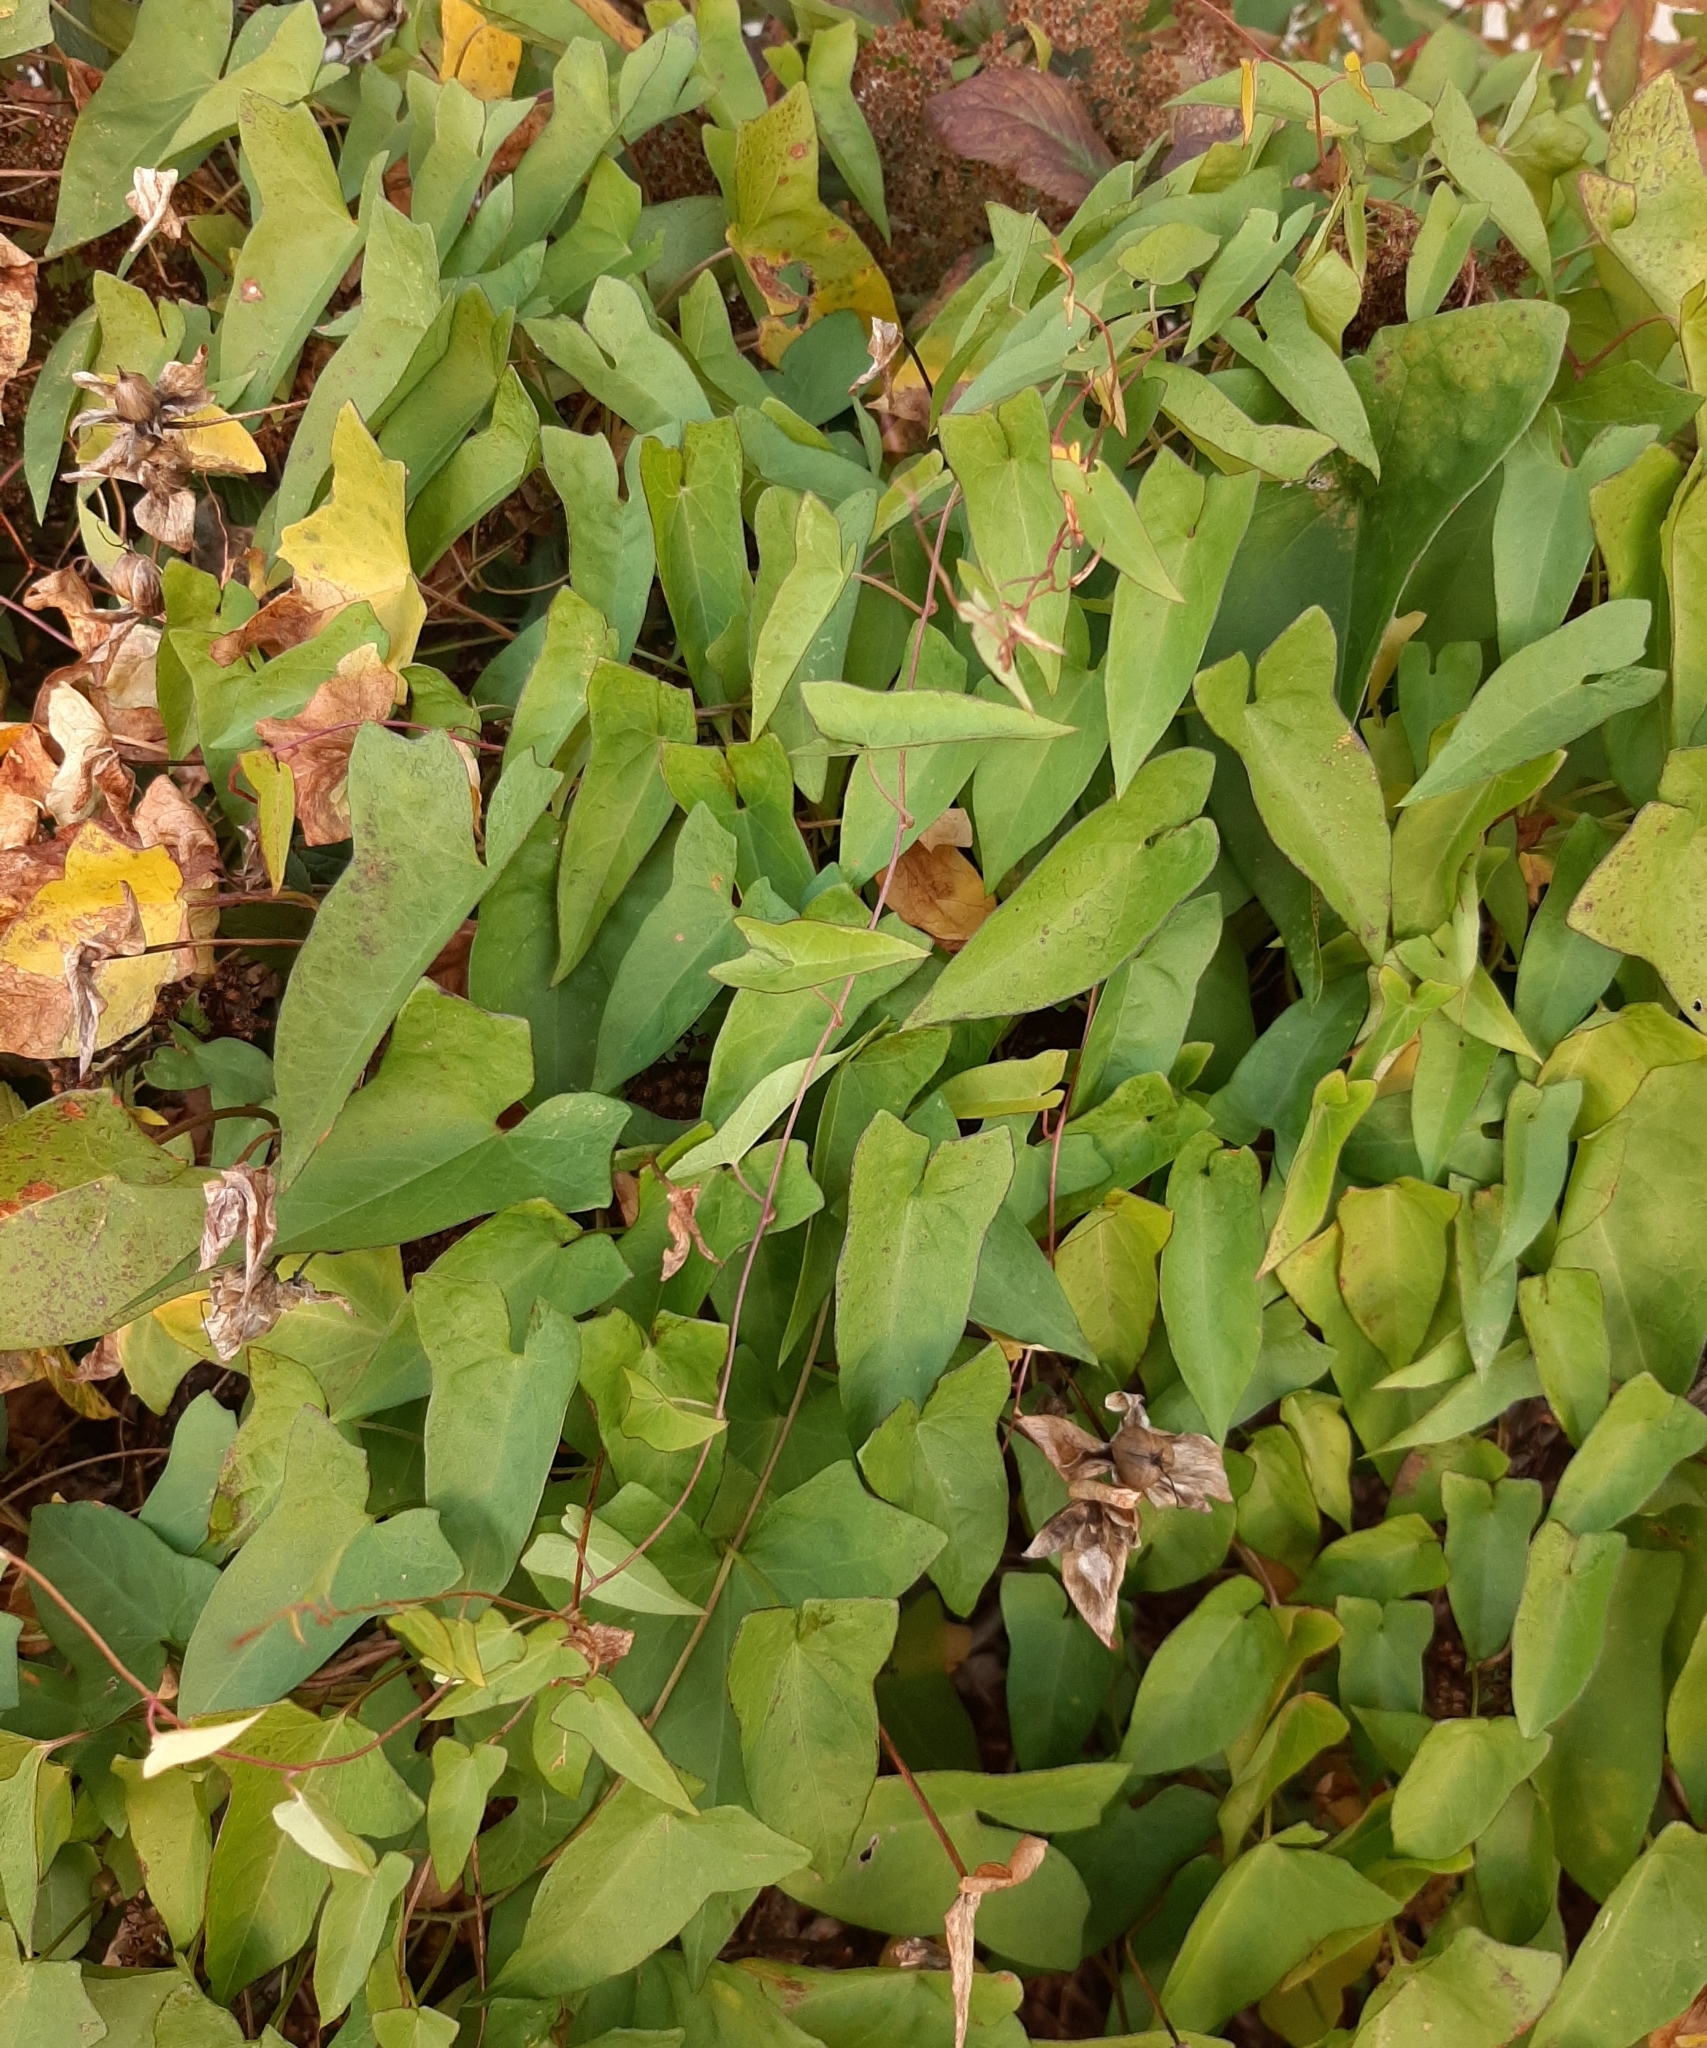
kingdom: Plantae
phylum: Tracheophyta
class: Magnoliopsida
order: Solanales
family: Convolvulaceae
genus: Calystegia
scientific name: Calystegia sepium
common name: Hedge bindweed
